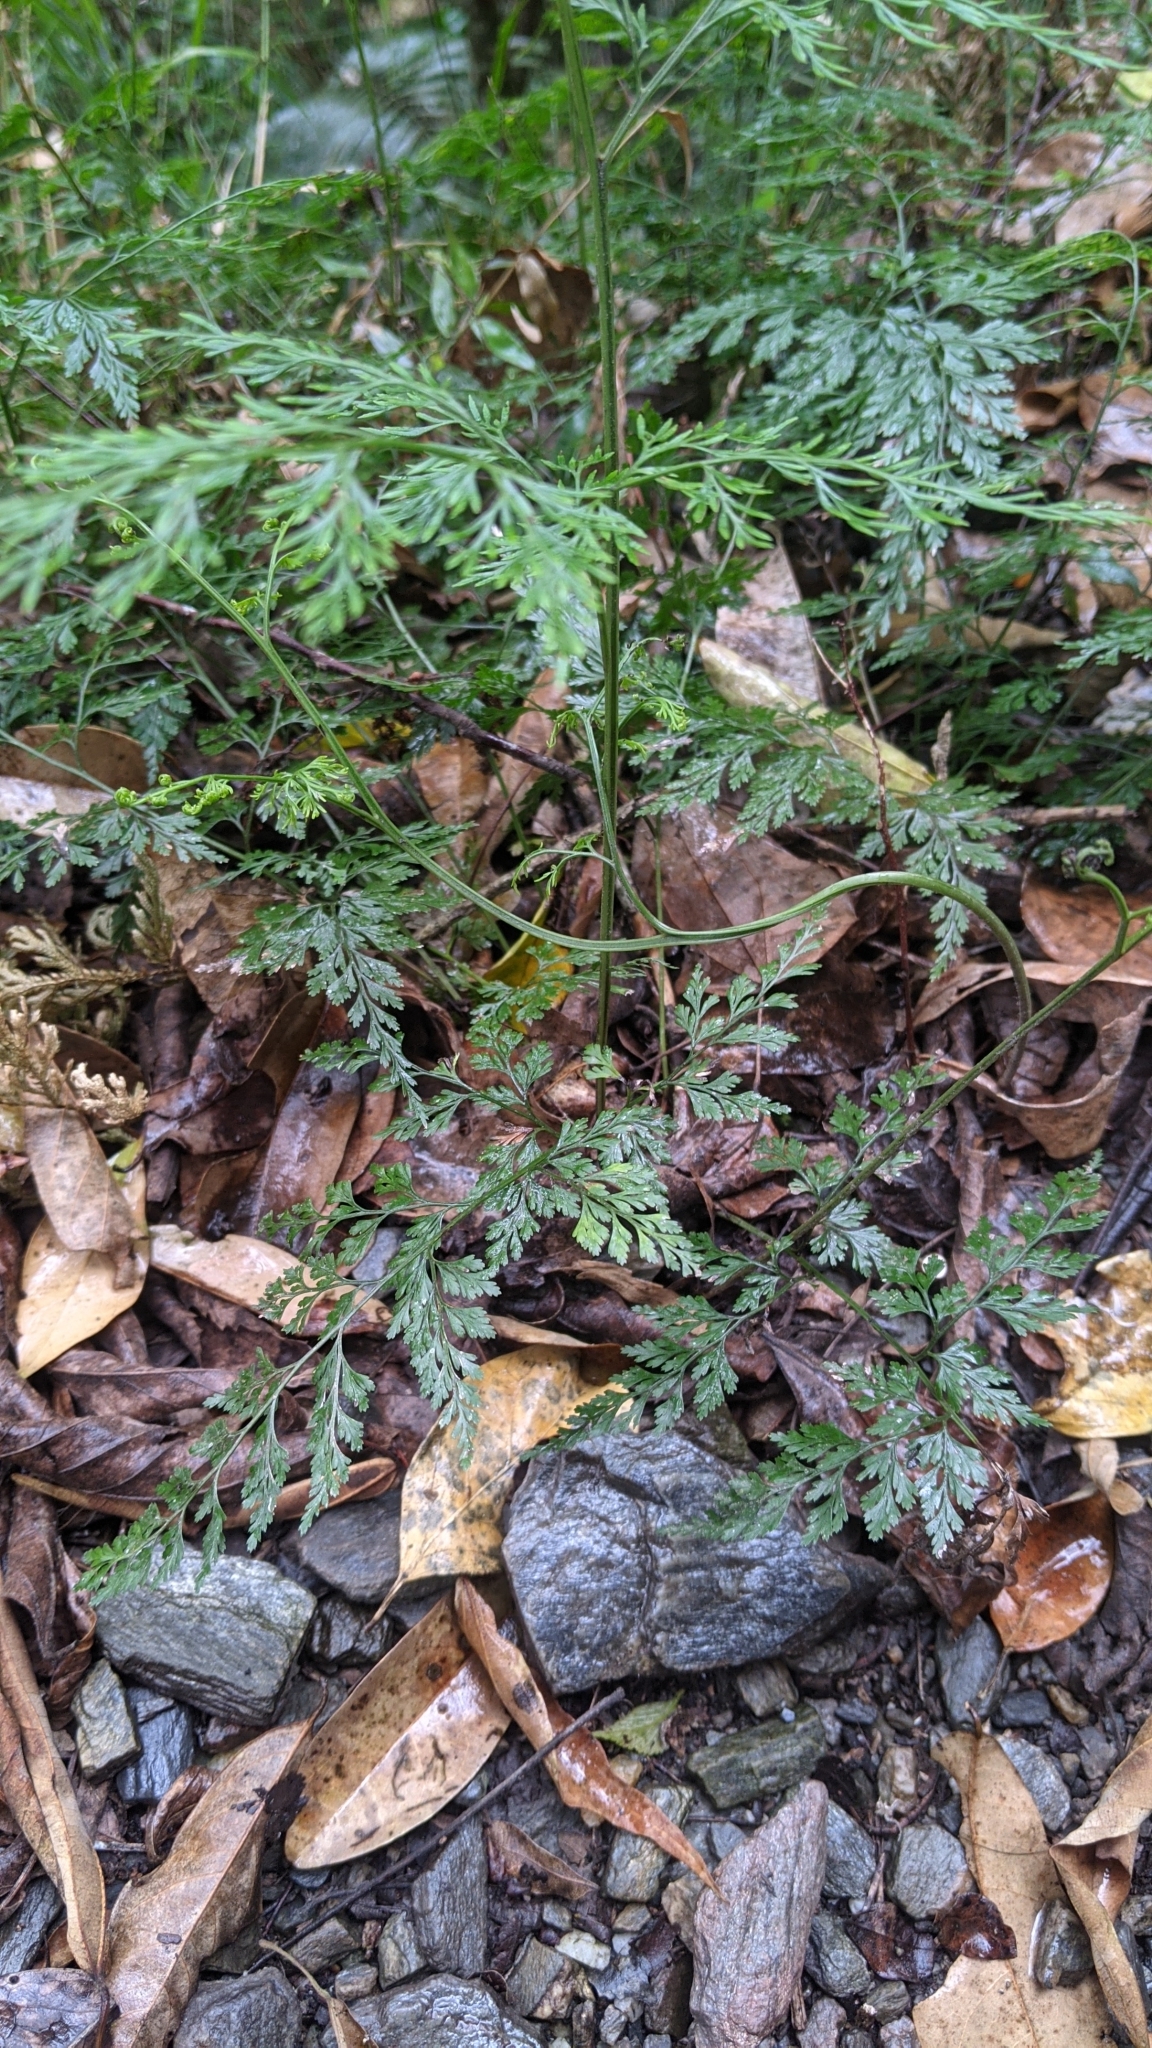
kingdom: Plantae
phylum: Tracheophyta
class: Polypodiopsida
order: Polypodiales
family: Pteridaceae
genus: Onychium
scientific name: Onychium japonicum
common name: Carrot fern
